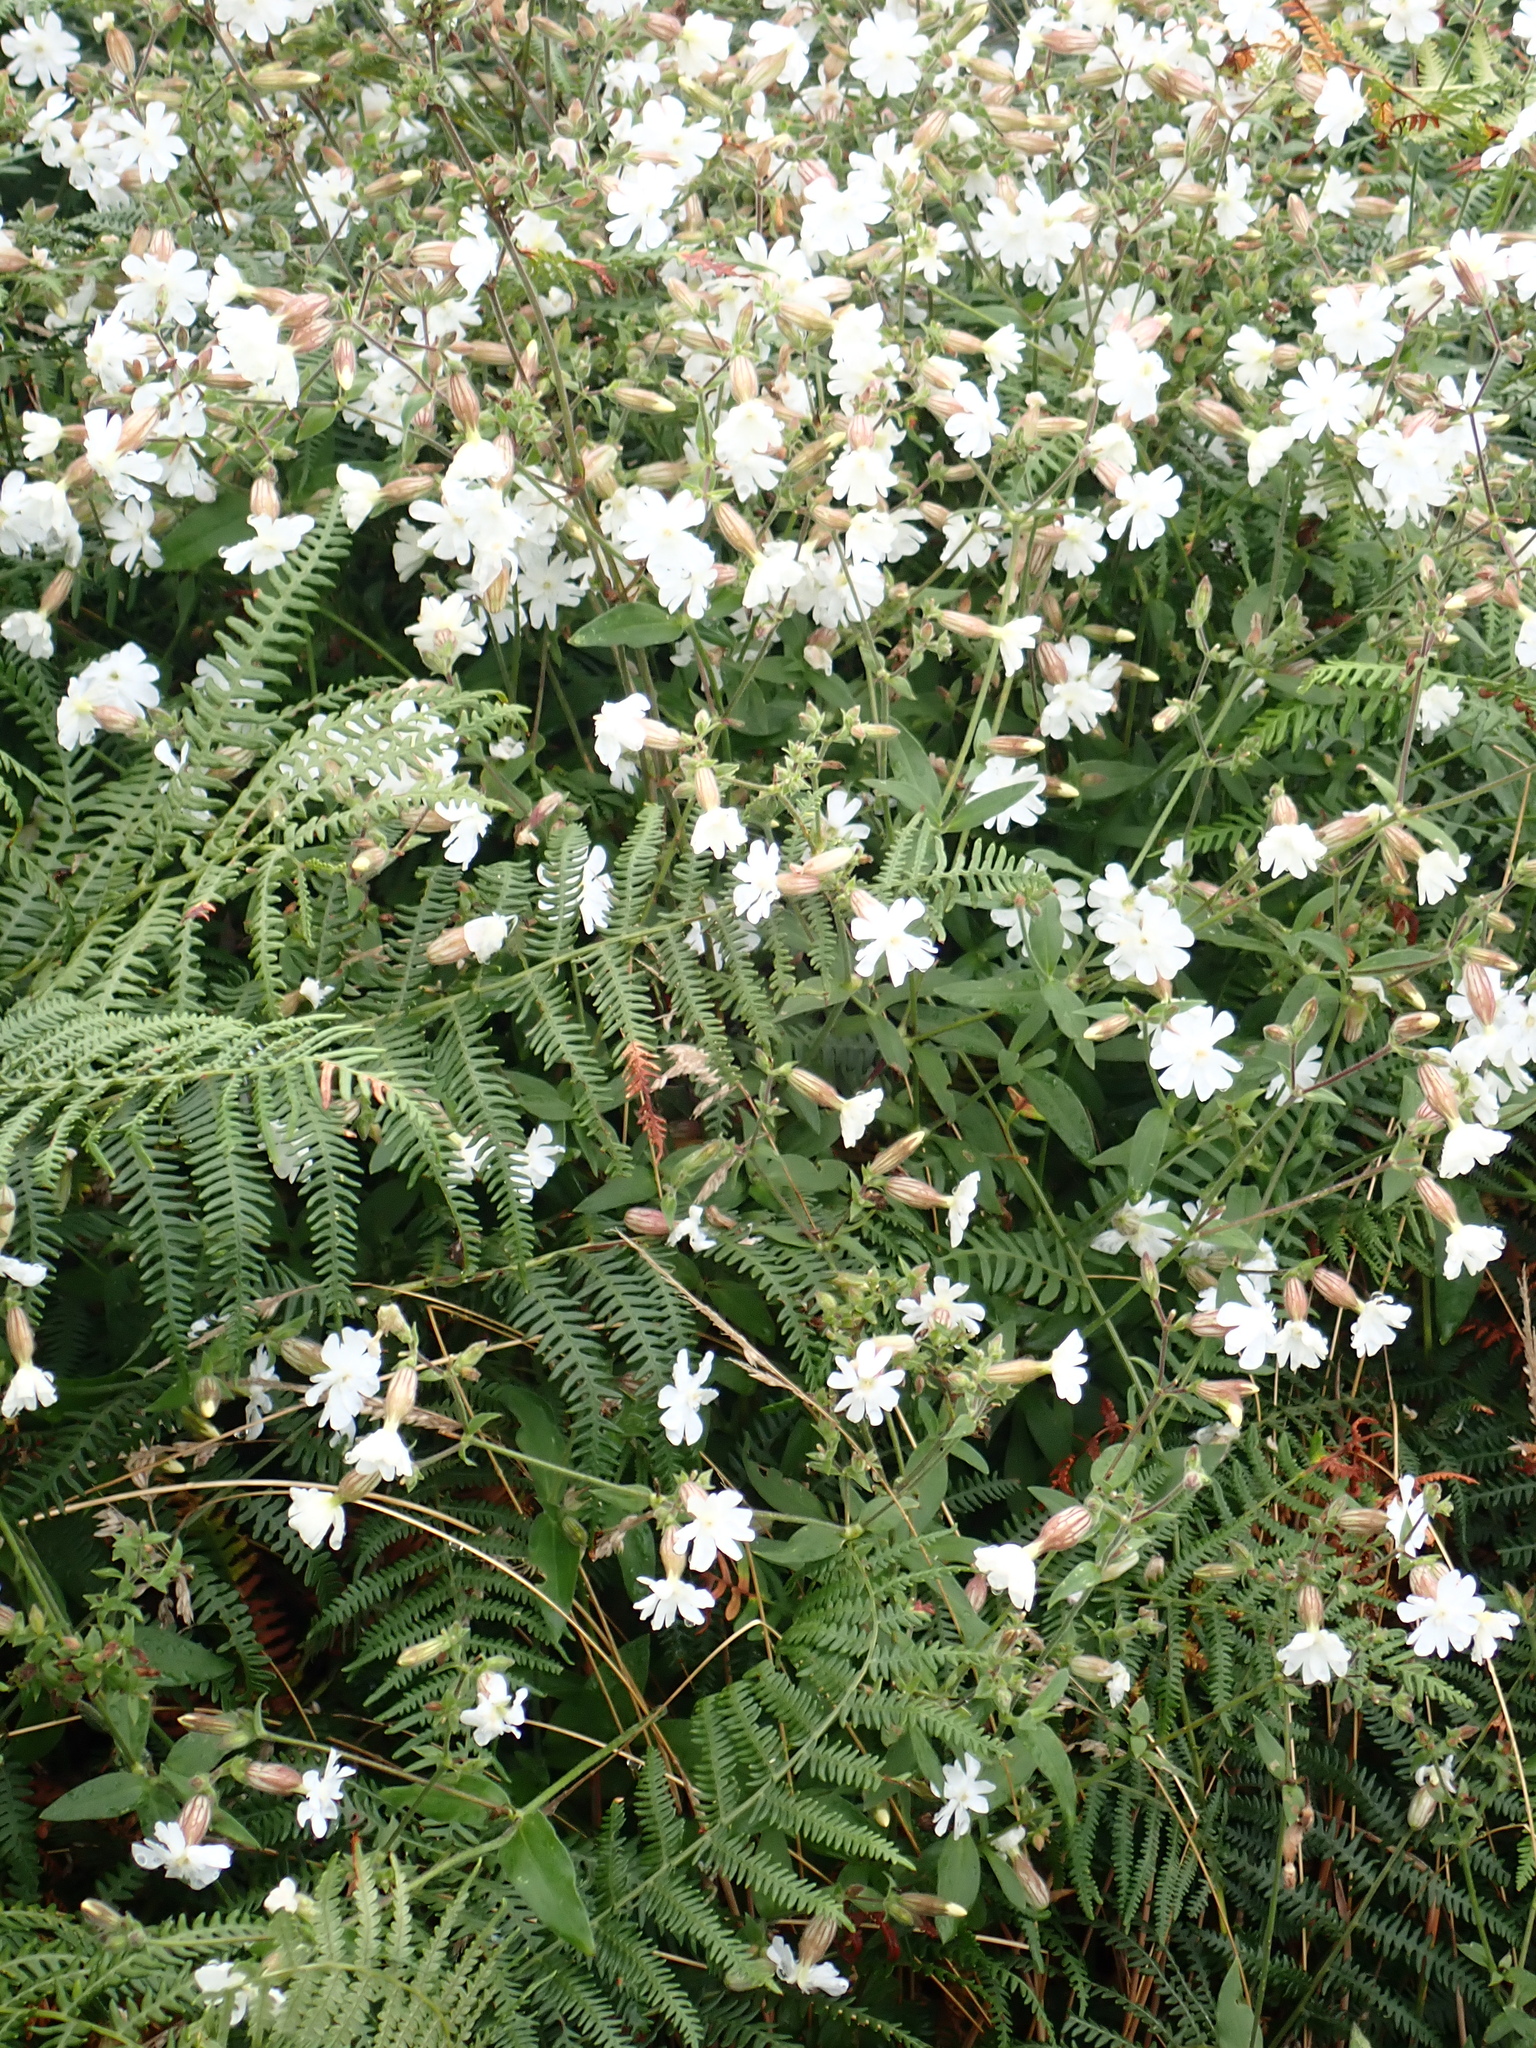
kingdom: Plantae
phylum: Tracheophyta
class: Magnoliopsida
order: Caryophyllales
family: Caryophyllaceae
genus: Silene
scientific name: Silene latifolia
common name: White campion
